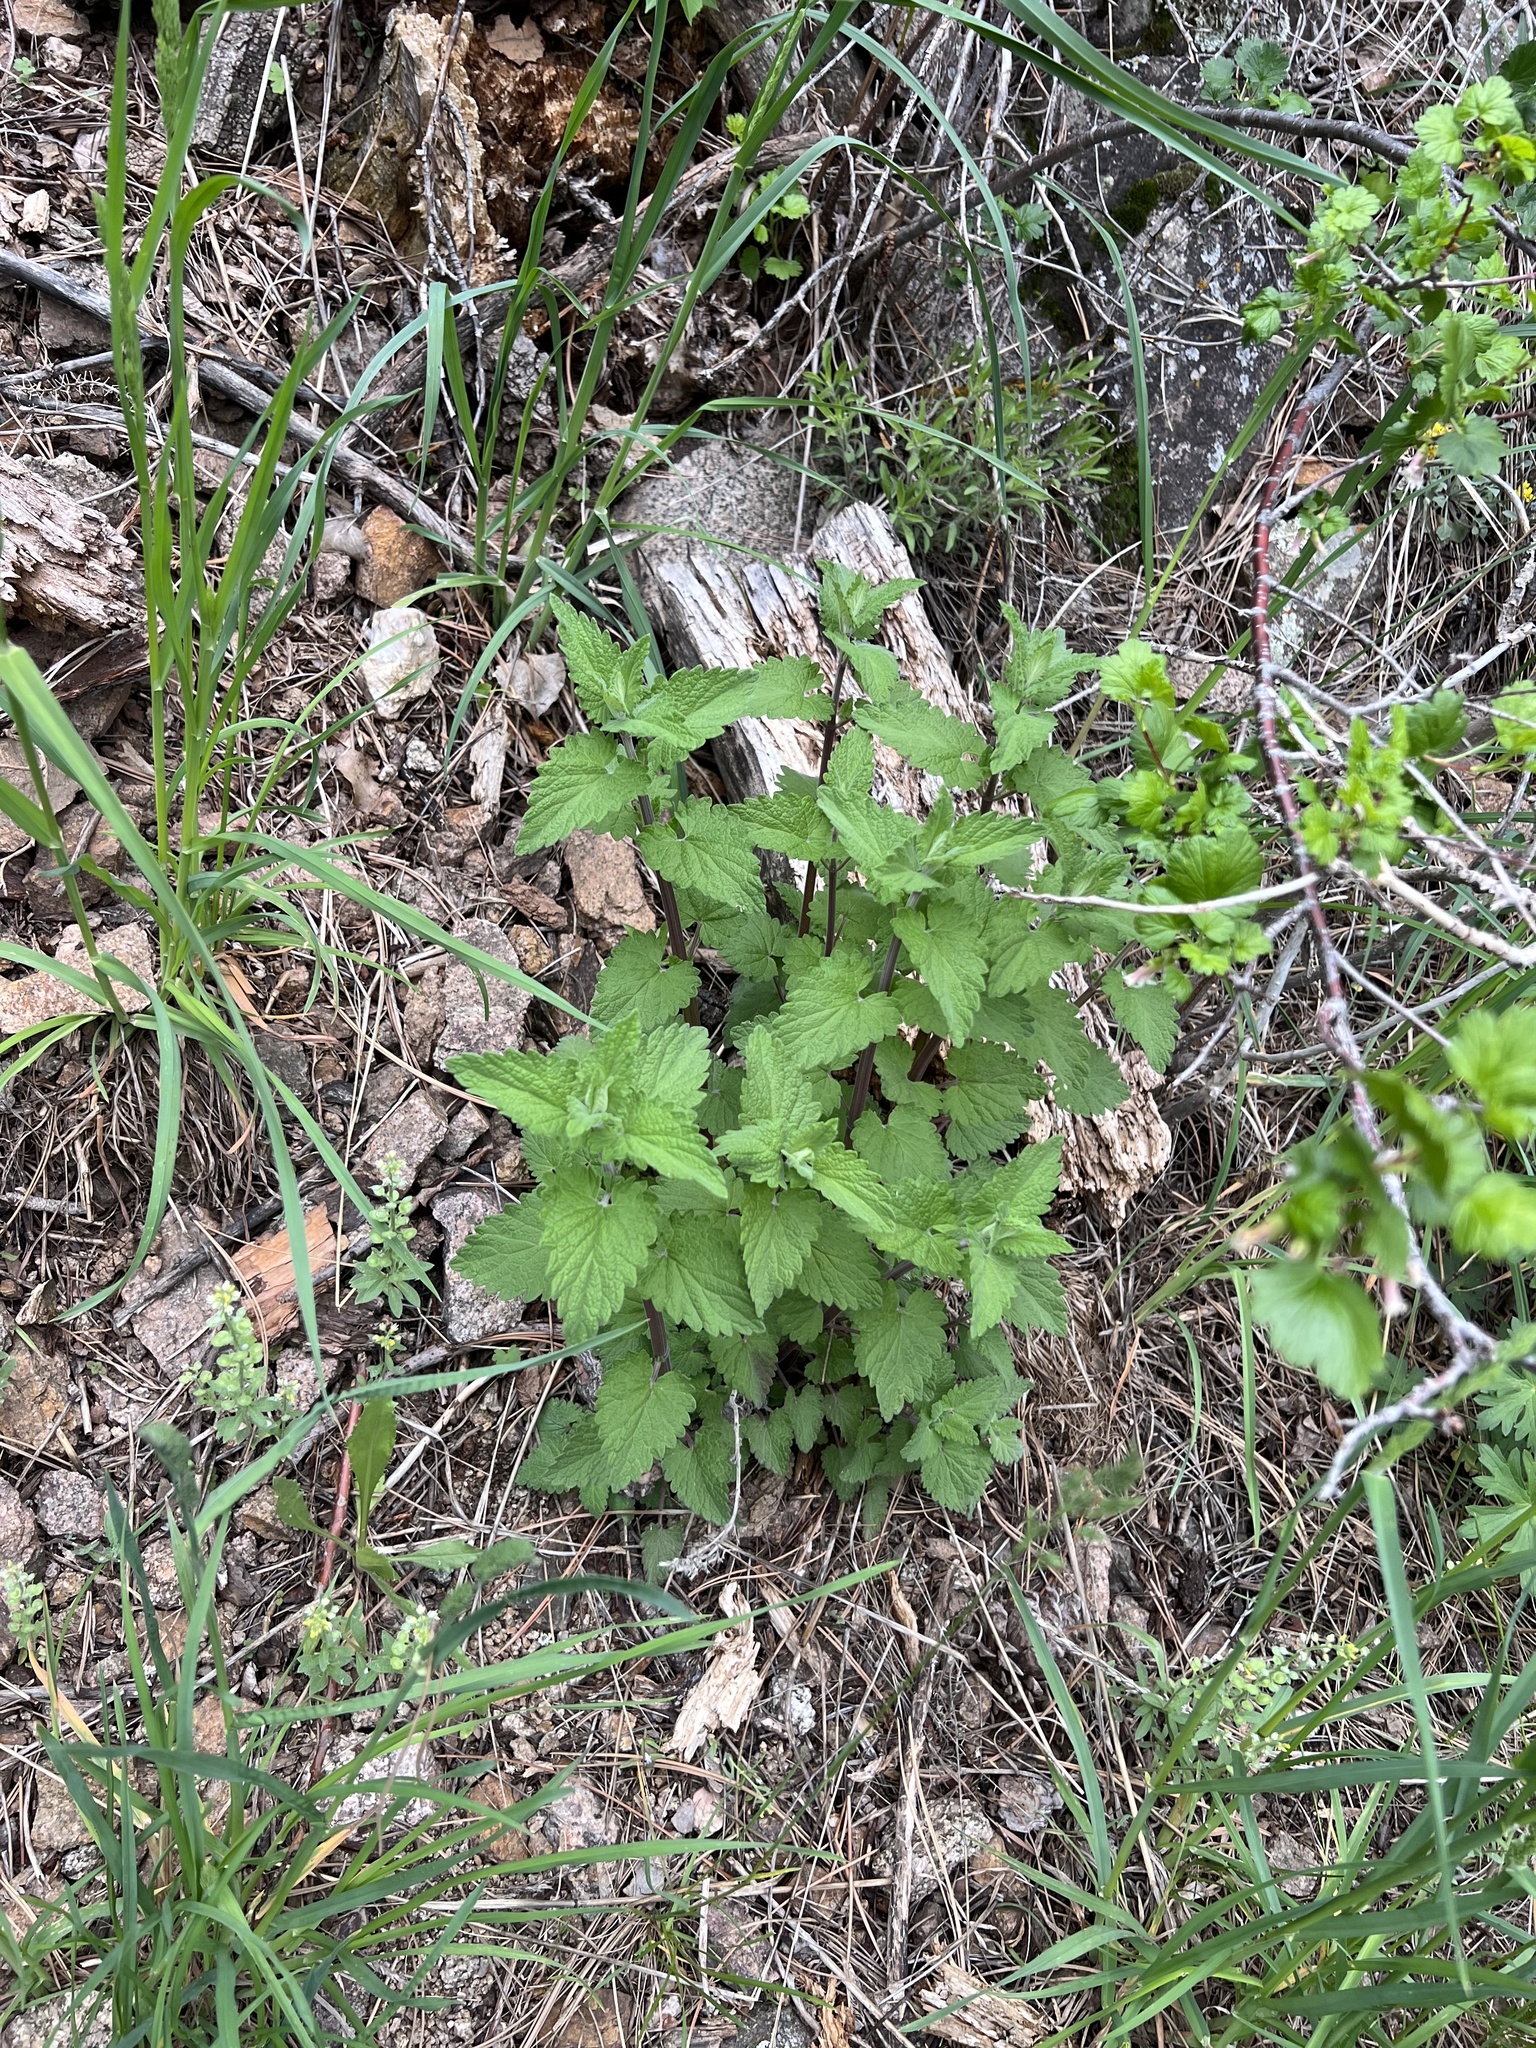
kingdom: Plantae
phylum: Tracheophyta
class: Magnoliopsida
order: Lamiales
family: Lamiaceae
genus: Nepeta
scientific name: Nepeta cataria
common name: Catnip
